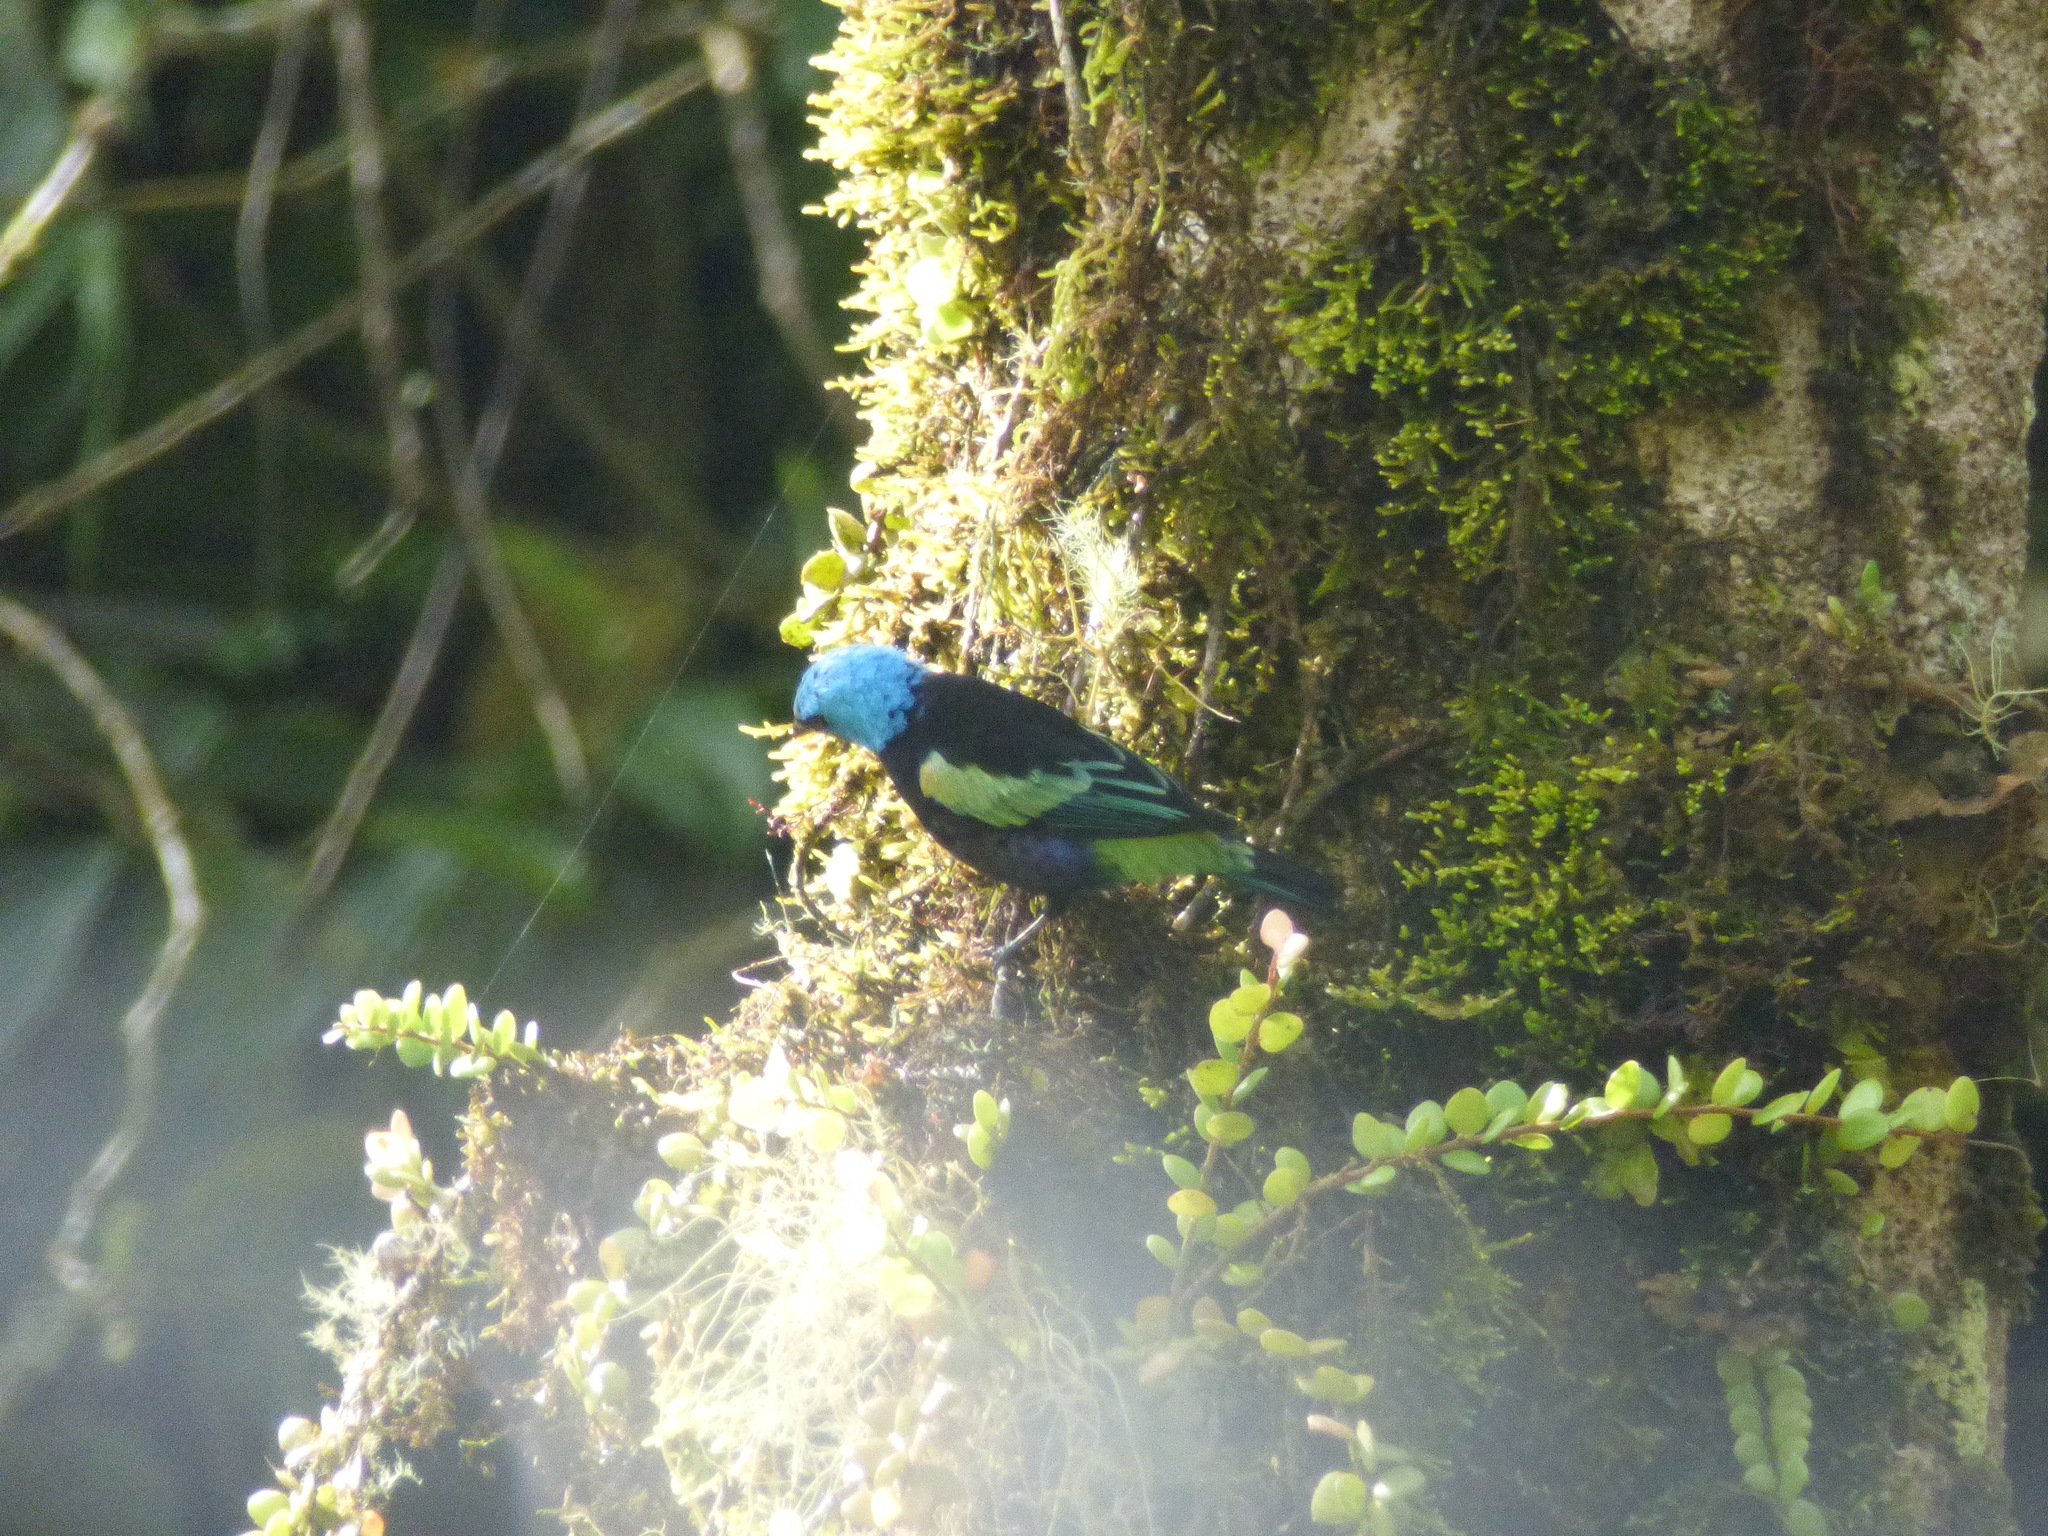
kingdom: Animalia
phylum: Chordata
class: Aves
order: Passeriformes
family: Thraupidae
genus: Stilpnia
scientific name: Stilpnia cyanicollis
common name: Blue-necked tanager
